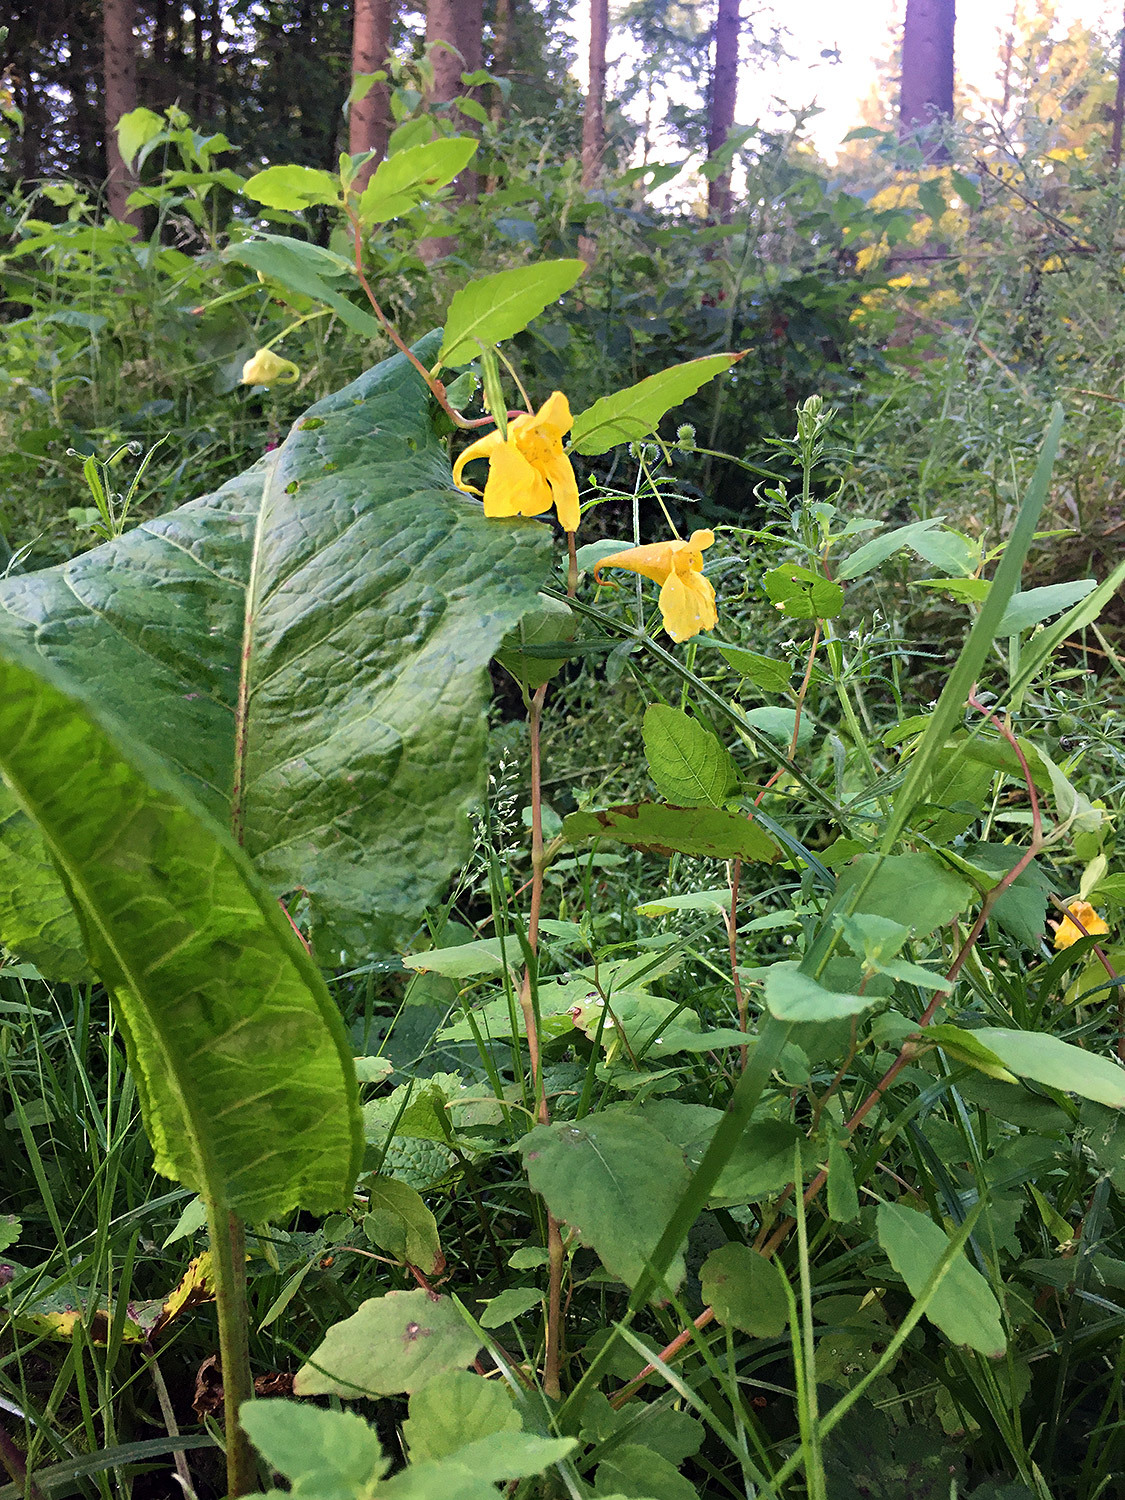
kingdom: Plantae
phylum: Tracheophyta
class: Magnoliopsida
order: Ericales
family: Balsaminaceae
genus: Impatiens
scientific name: Impatiens noli-tangere
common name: Touch-me-not balsam
